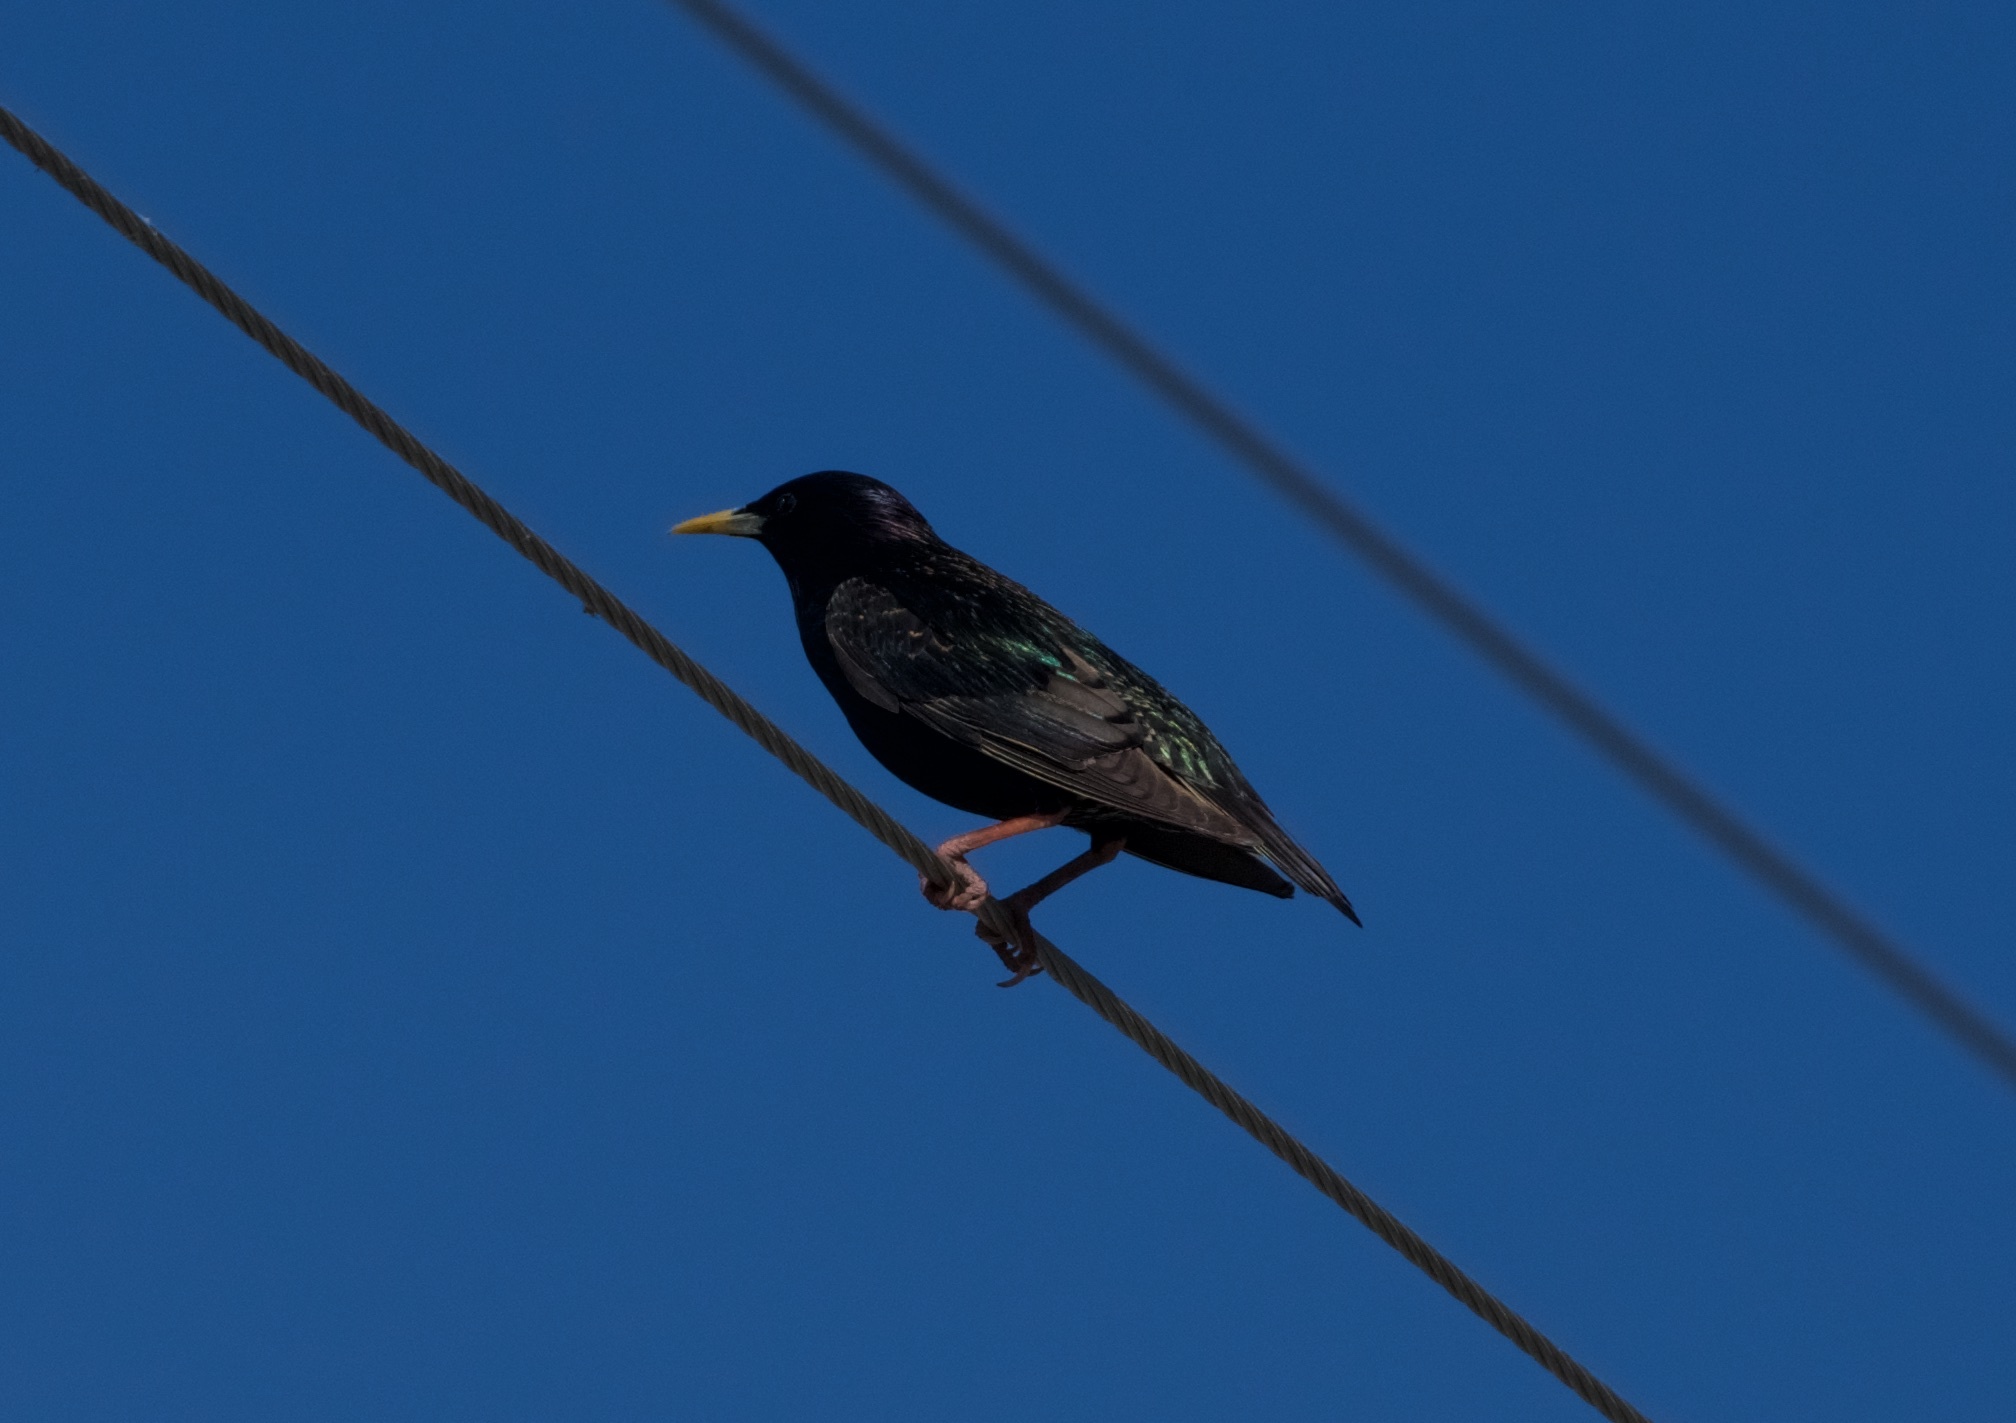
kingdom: Animalia
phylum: Chordata
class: Aves
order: Passeriformes
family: Sturnidae
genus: Sturnus
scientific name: Sturnus vulgaris
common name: Common starling
